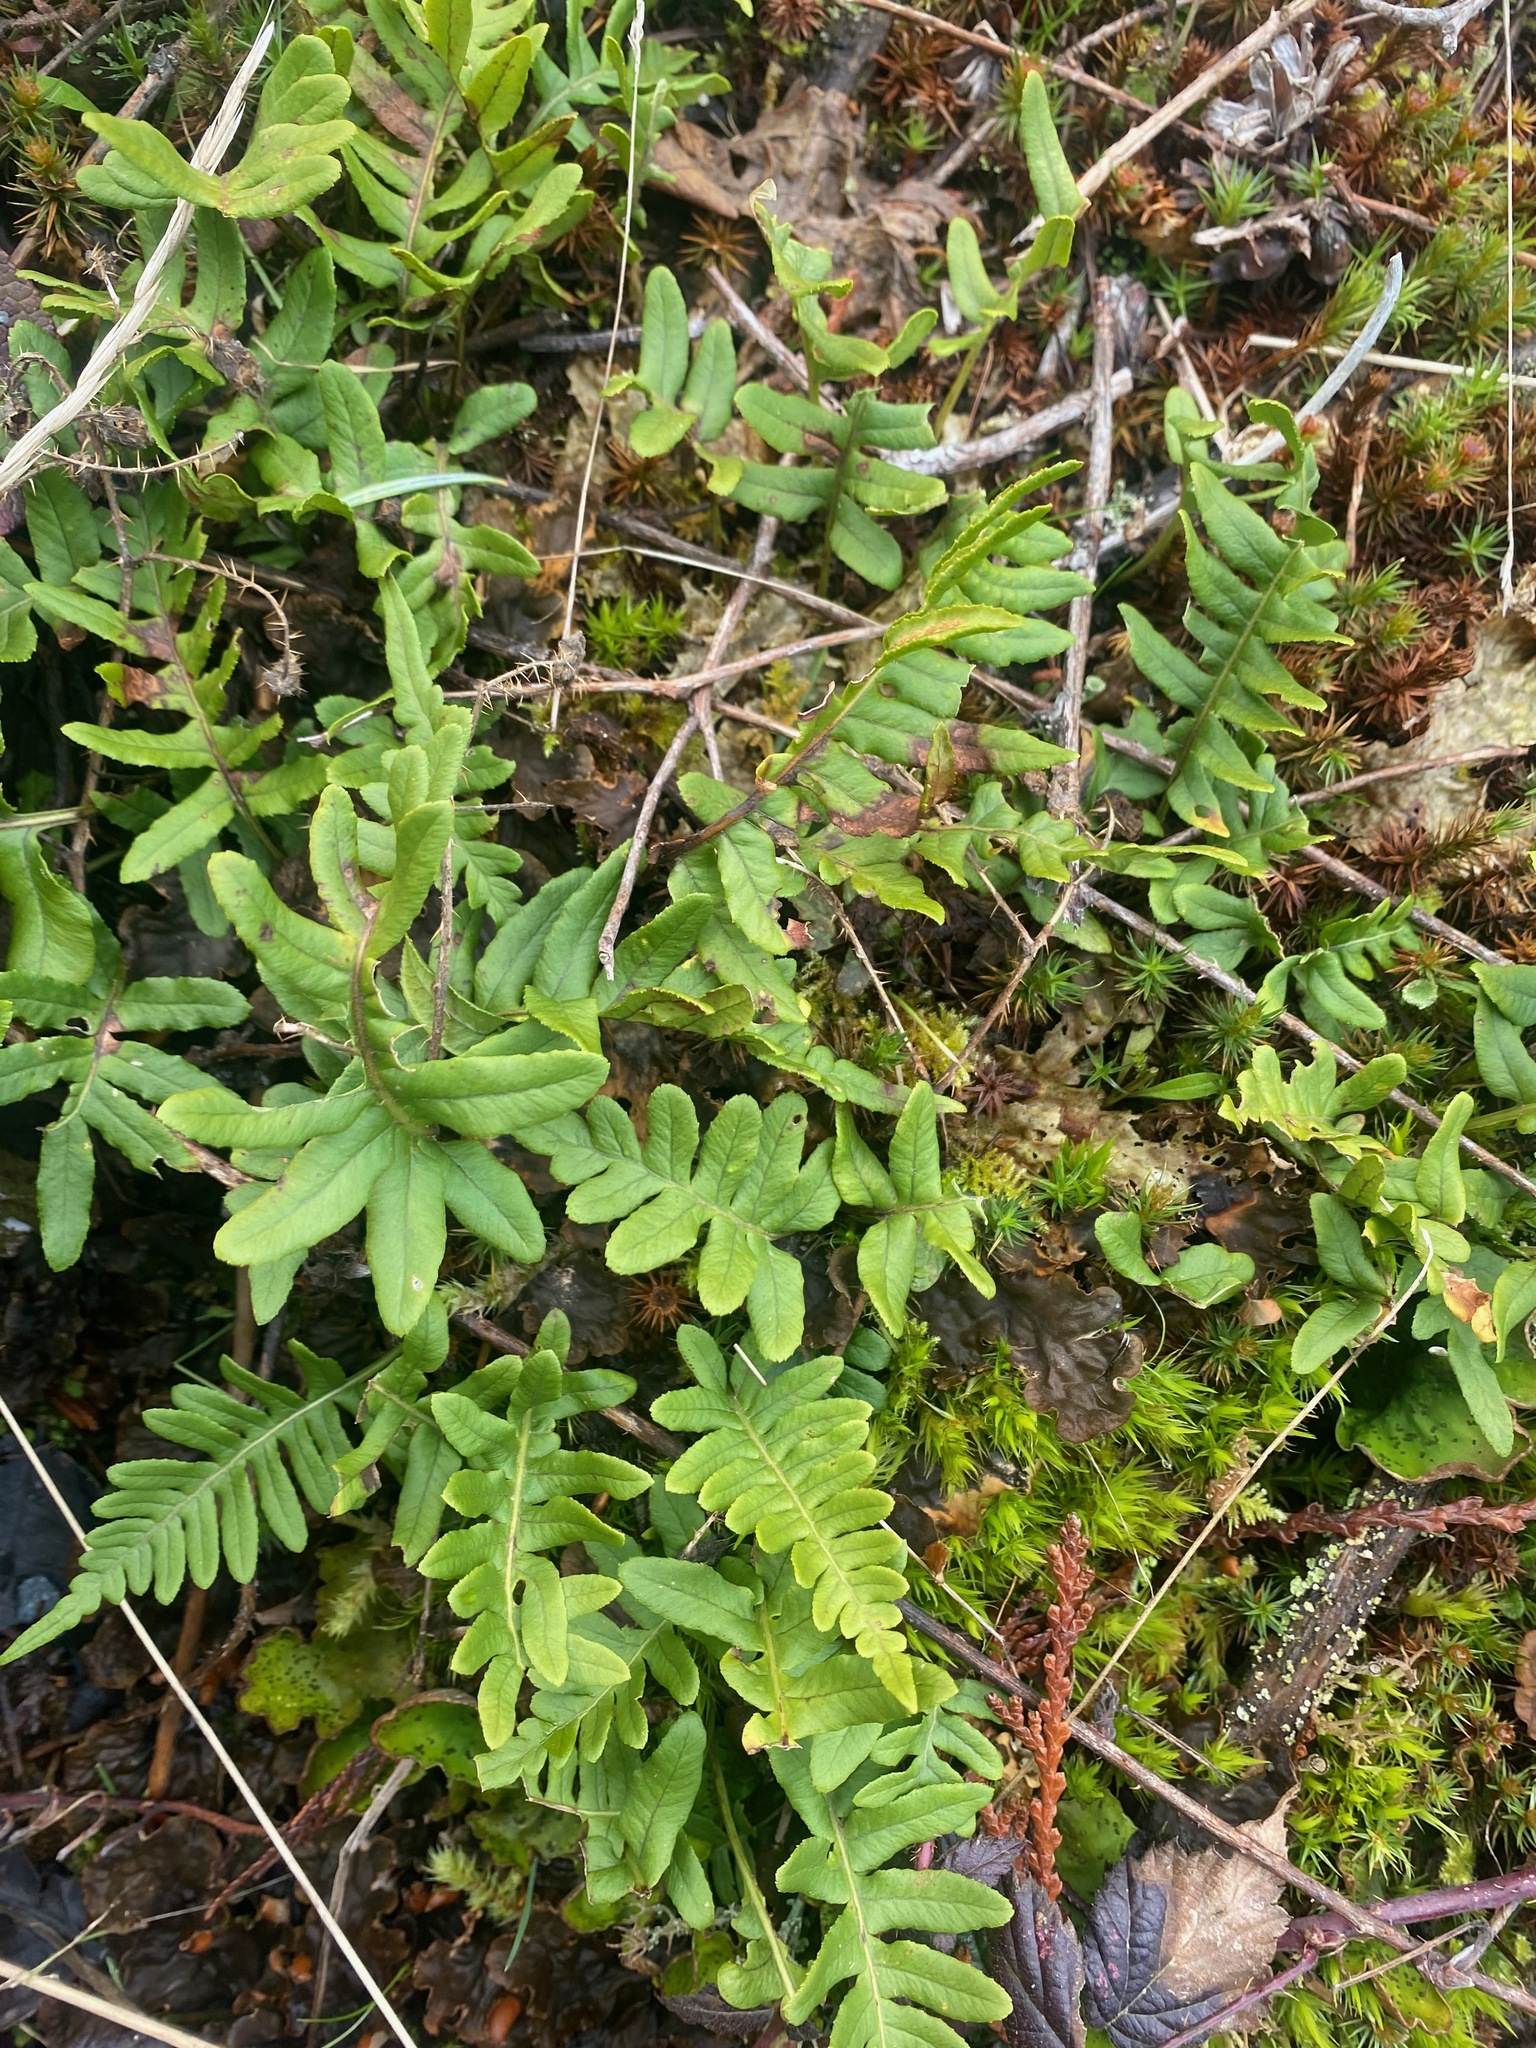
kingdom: Plantae
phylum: Tracheophyta
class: Polypodiopsida
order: Polypodiales
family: Polypodiaceae
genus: Polypodium
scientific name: Polypodium glycyrrhiza
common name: Licorice fern
